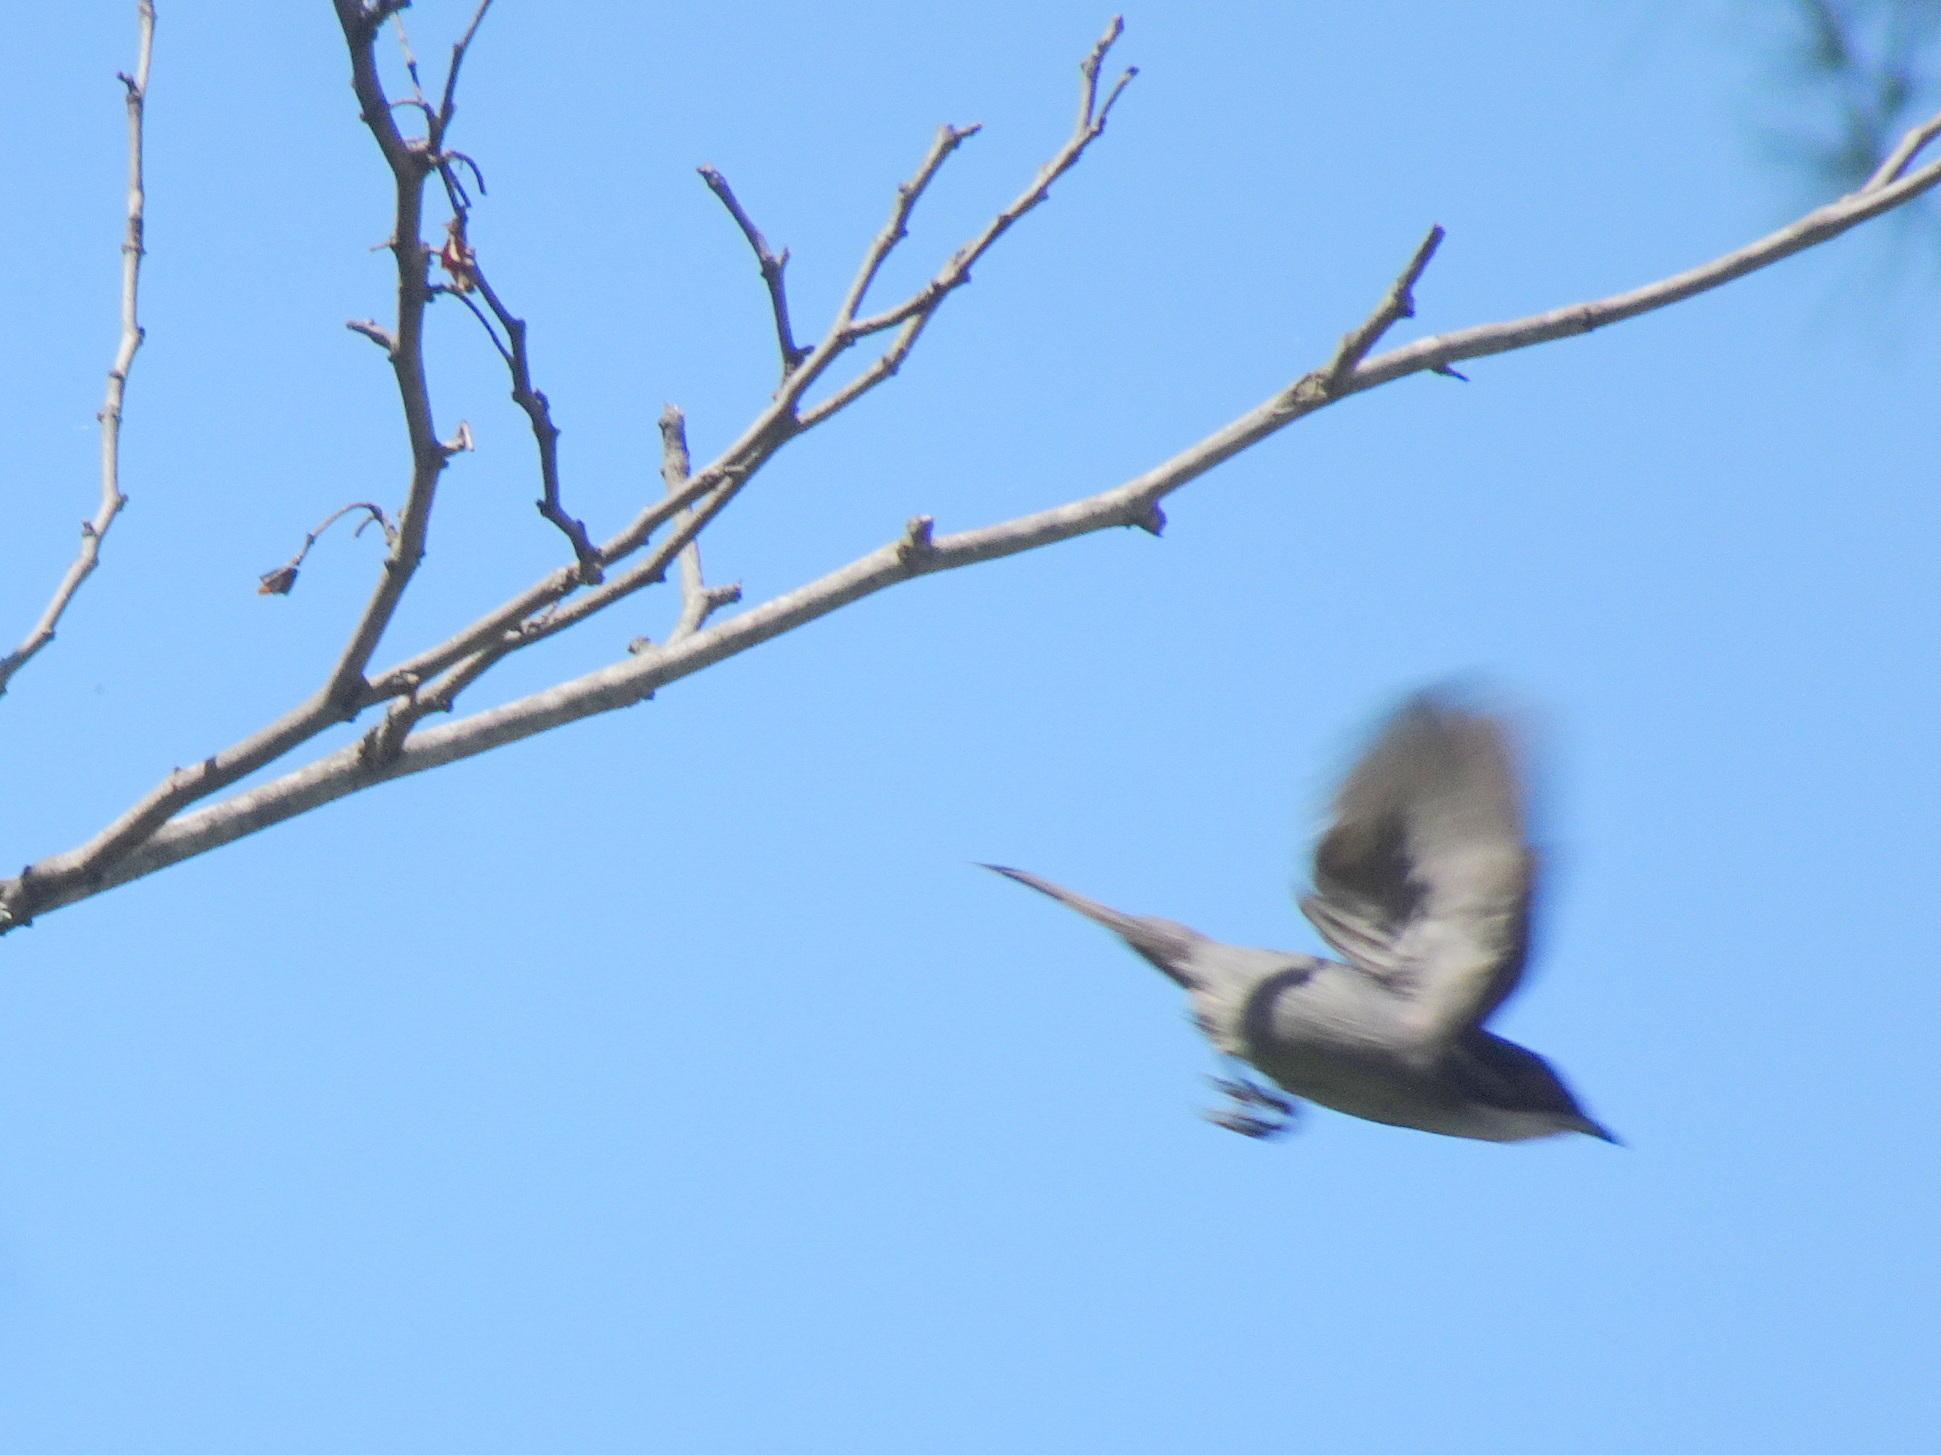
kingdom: Animalia
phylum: Chordata
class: Aves
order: Passeriformes
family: Sylviidae
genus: Curruca
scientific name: Curruca melanocephala
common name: Sardinian warbler
